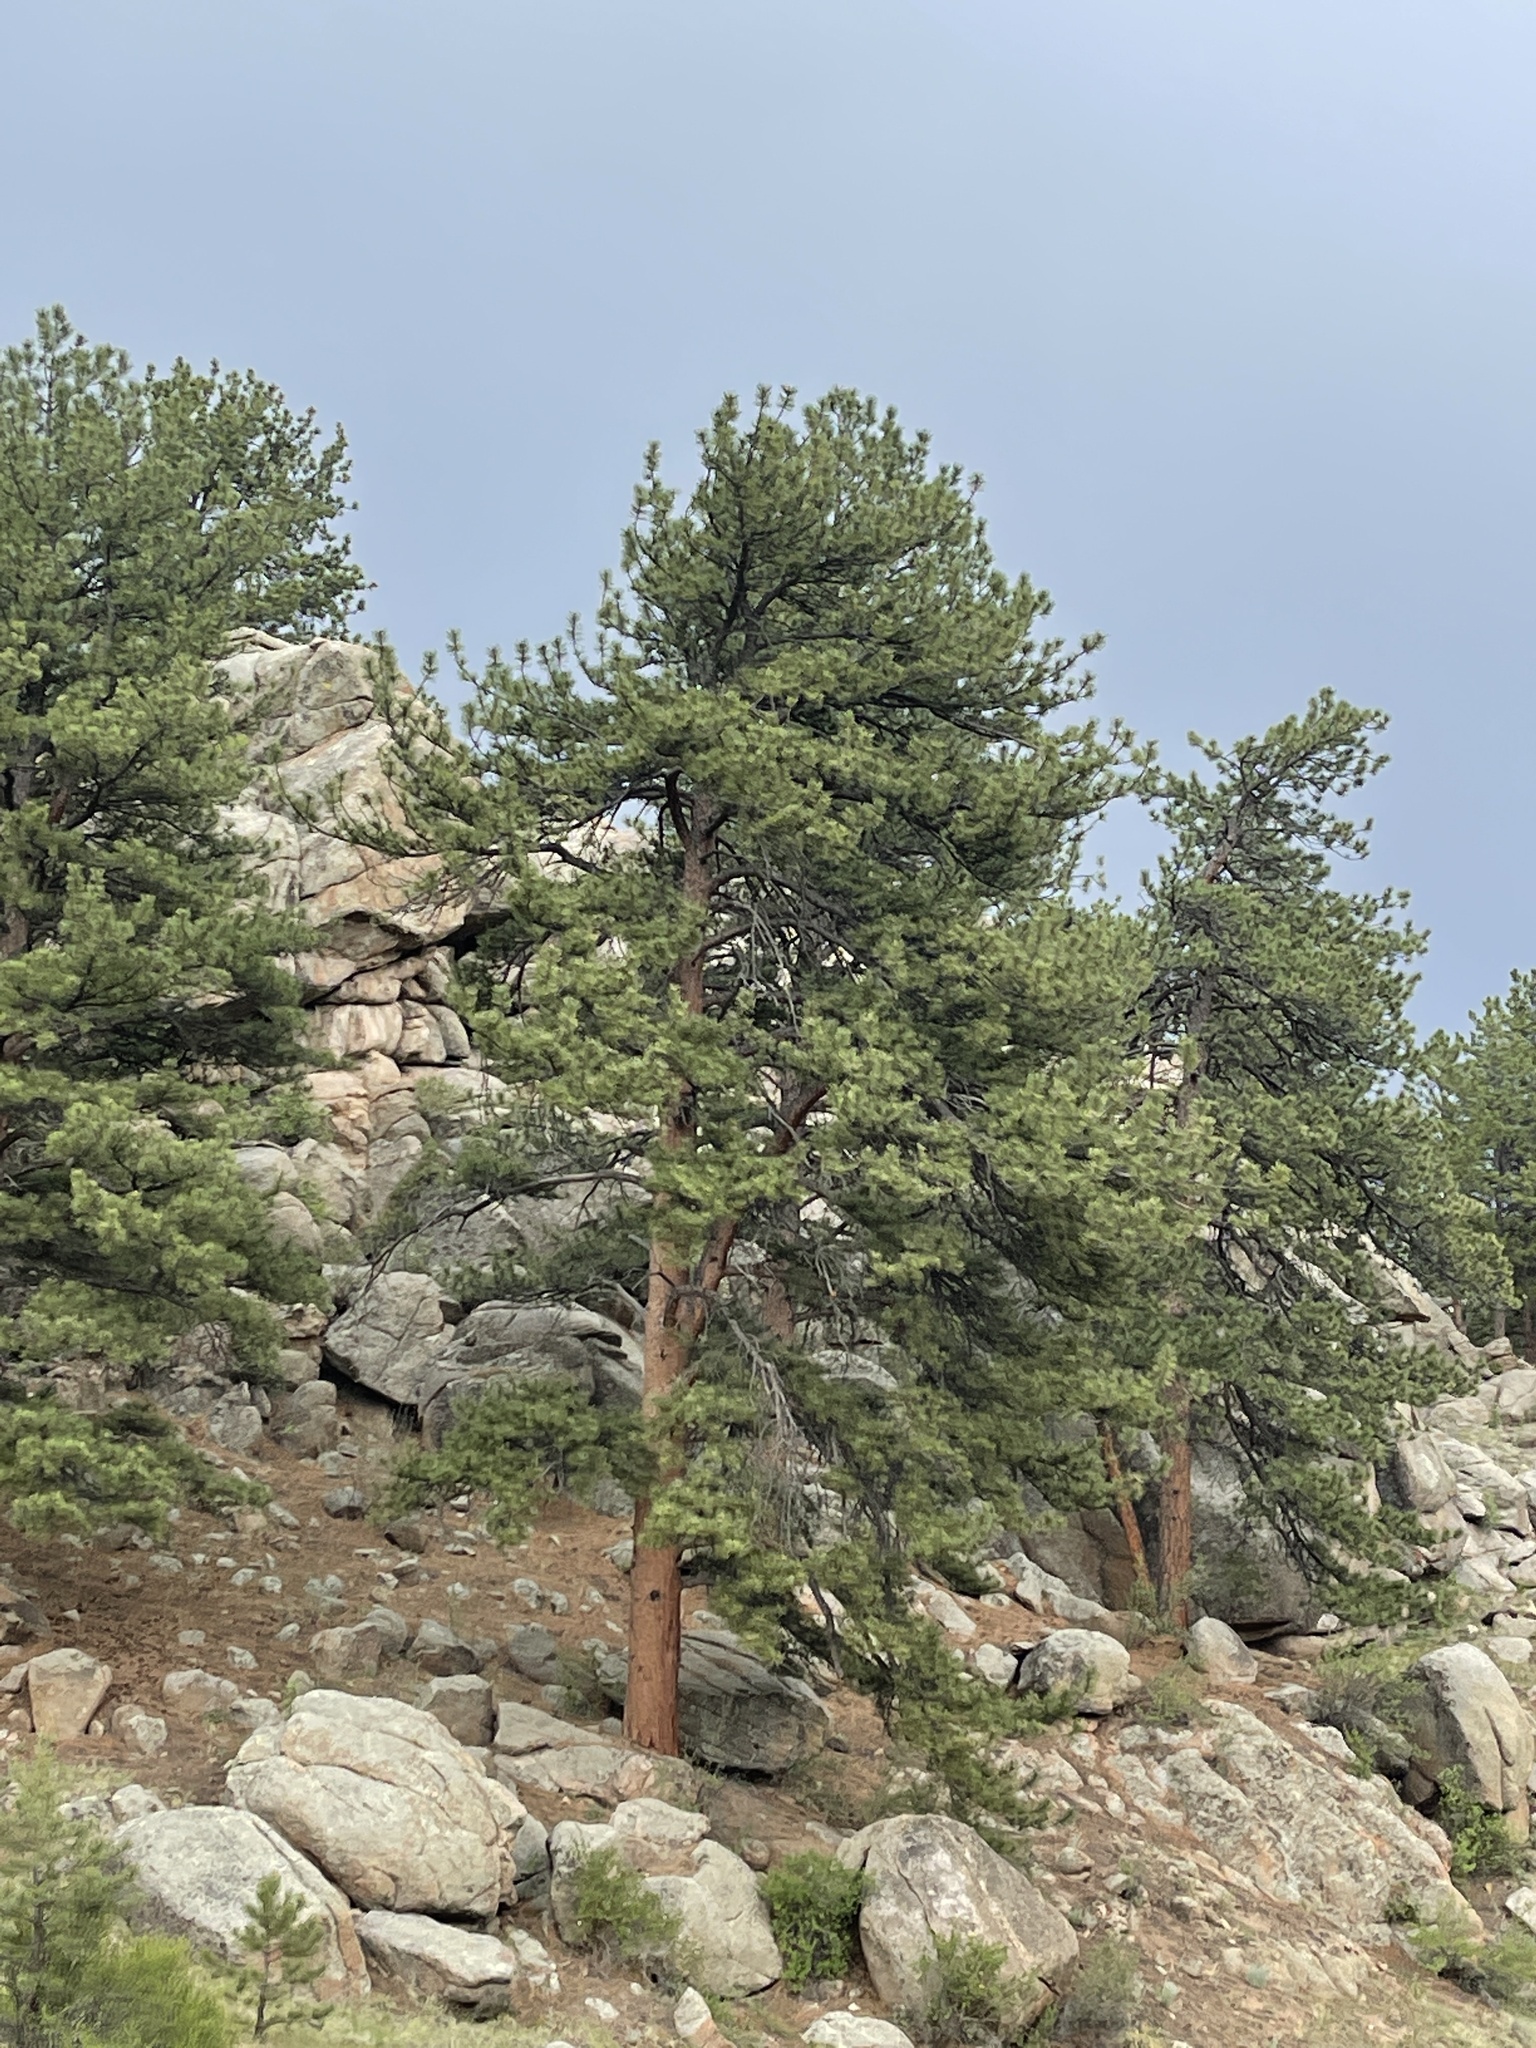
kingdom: Plantae
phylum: Tracheophyta
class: Pinopsida
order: Pinales
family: Pinaceae
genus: Pinus
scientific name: Pinus ponderosa
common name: Western yellow-pine
